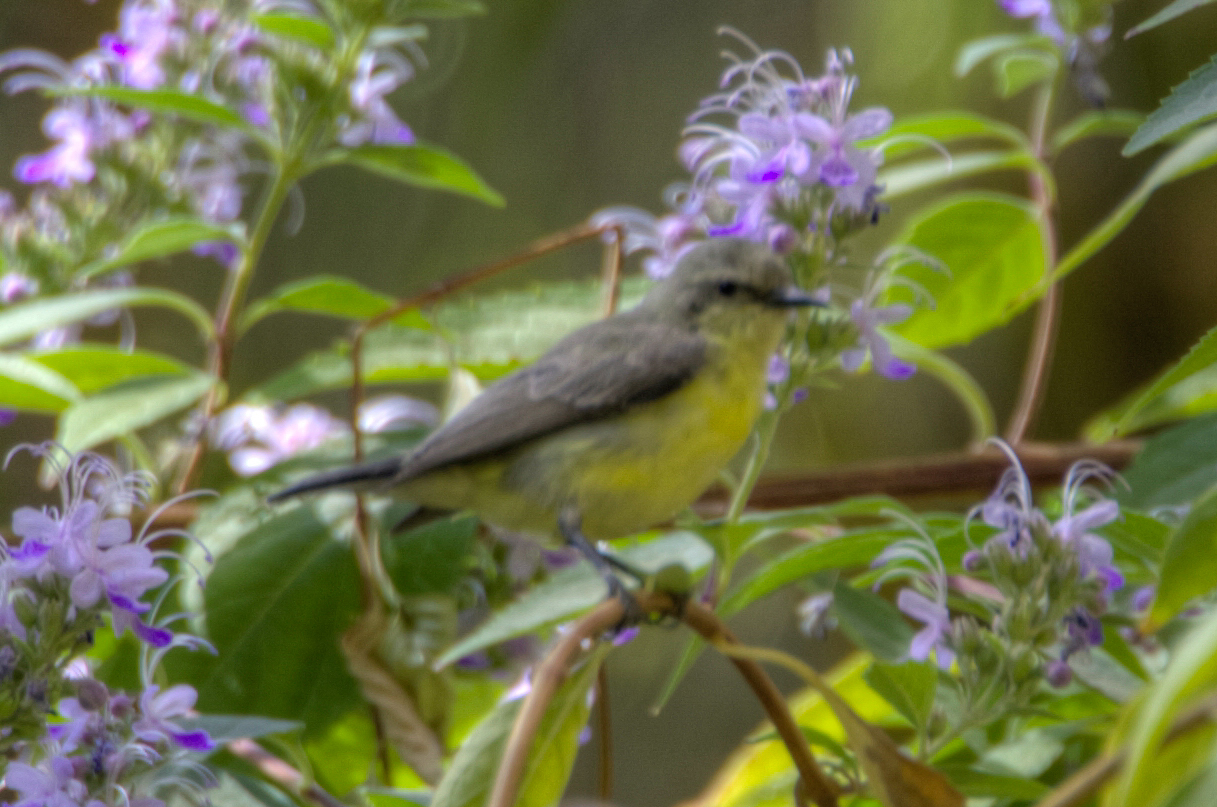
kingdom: Animalia
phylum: Chordata
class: Aves
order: Passeriformes
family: Nectariniidae
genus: Hedydipna
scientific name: Hedydipna metallica
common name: Nile valley sunbird
